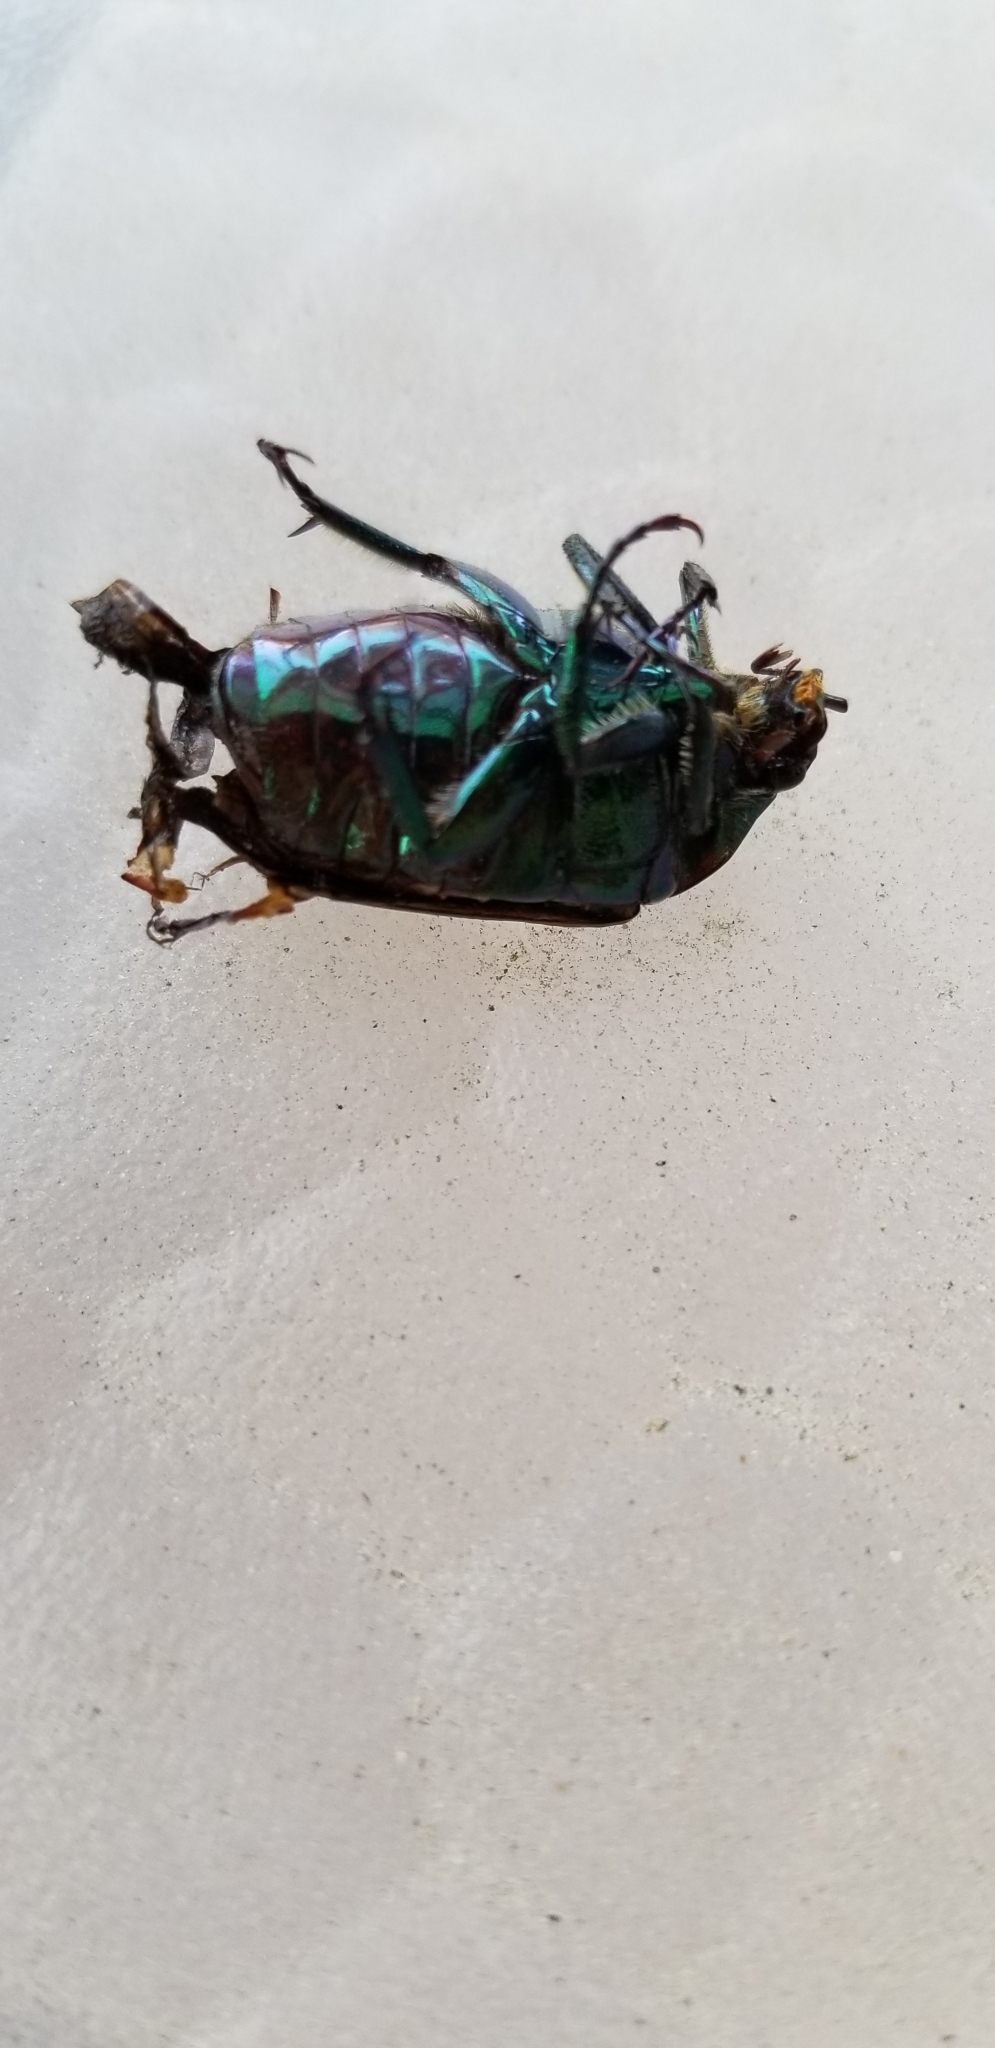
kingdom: Animalia
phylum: Arthropoda
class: Insecta
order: Coleoptera
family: Scarabaeidae
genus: Cotinis
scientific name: Cotinis mutabilis
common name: Figeater beetle
